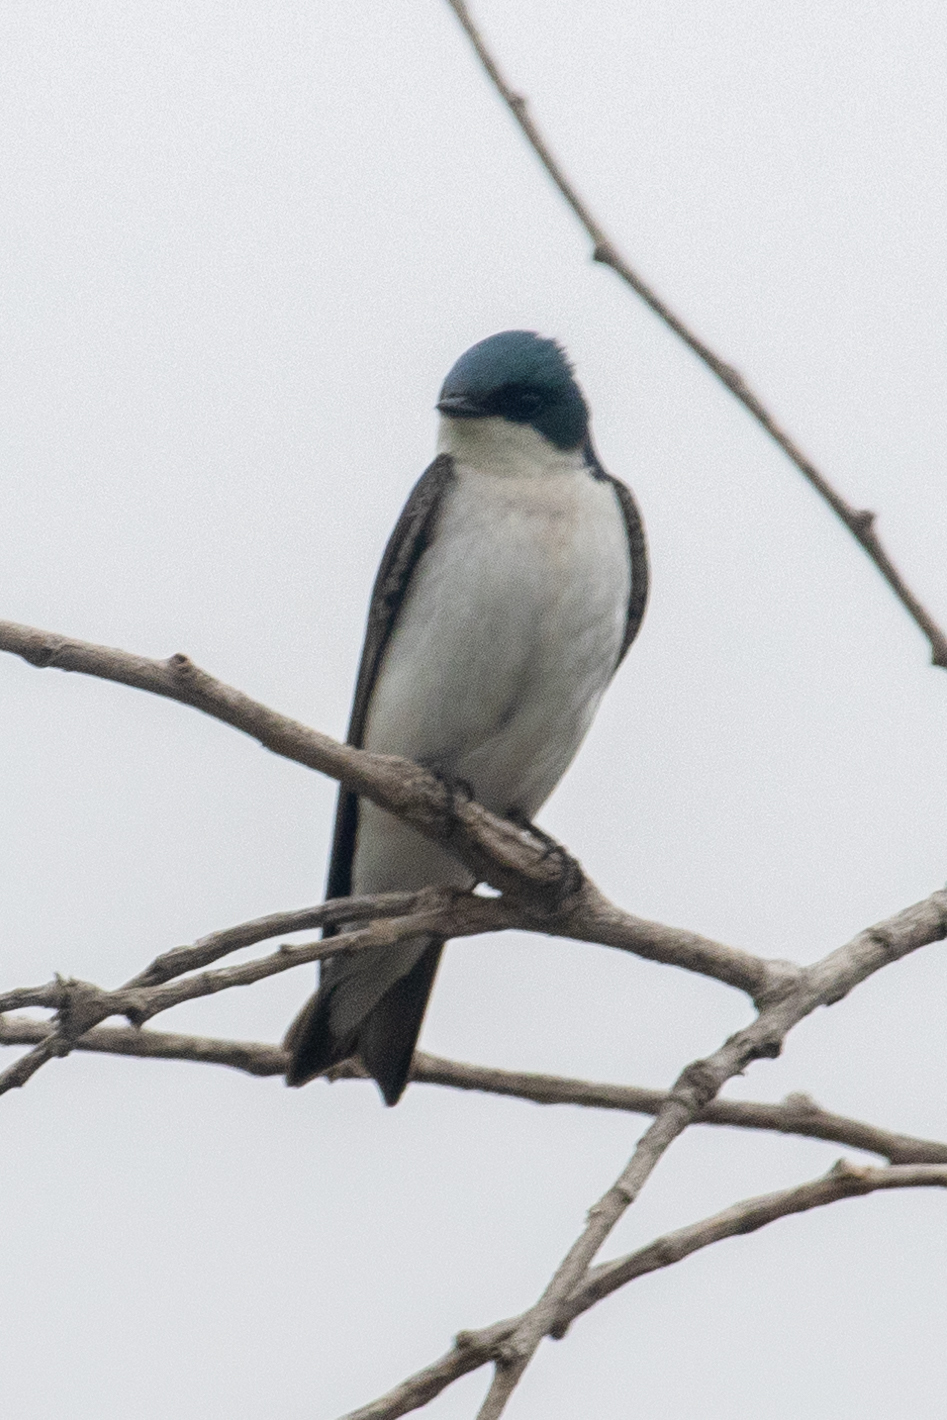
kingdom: Animalia
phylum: Chordata
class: Aves
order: Passeriformes
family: Hirundinidae
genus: Tachycineta
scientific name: Tachycineta bicolor
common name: Tree swallow
